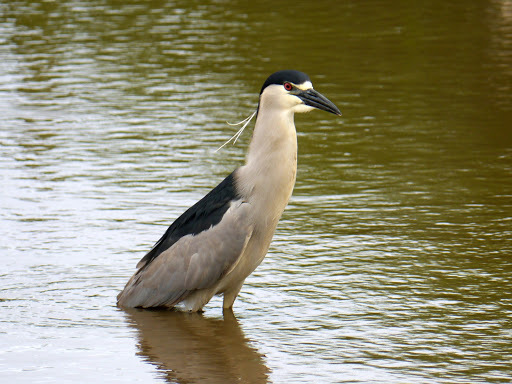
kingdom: Animalia
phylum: Chordata
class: Aves
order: Pelecaniformes
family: Ardeidae
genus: Nycticorax
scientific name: Nycticorax nycticorax
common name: Black-crowned night heron
